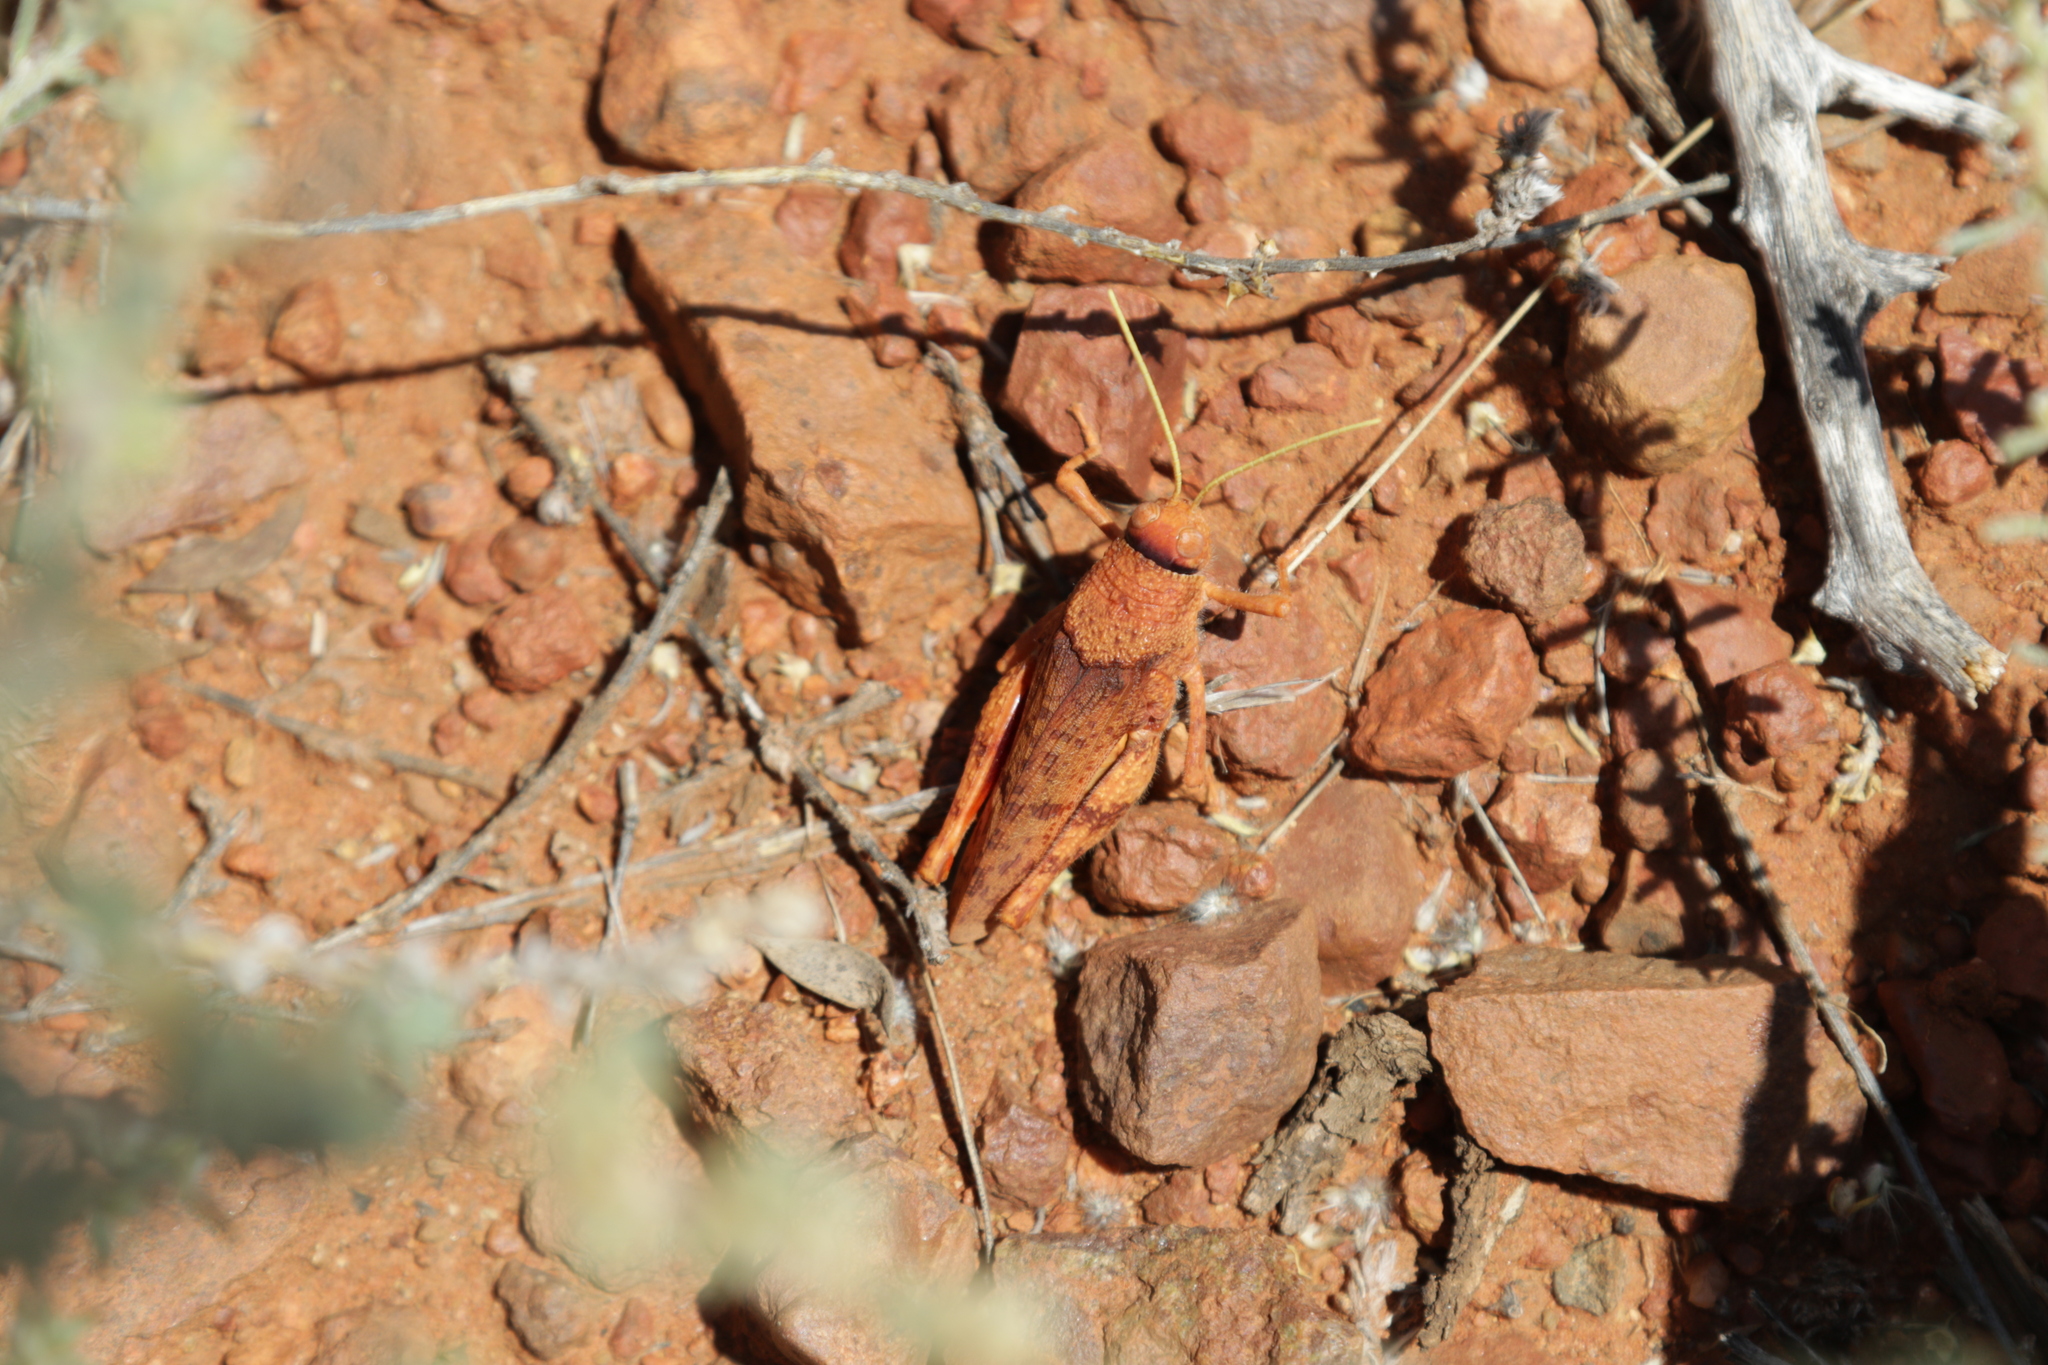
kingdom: Animalia
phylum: Arthropoda
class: Insecta
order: Orthoptera
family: Acrididae
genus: Buforania
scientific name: Buforania crassa
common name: Common toadhopper
